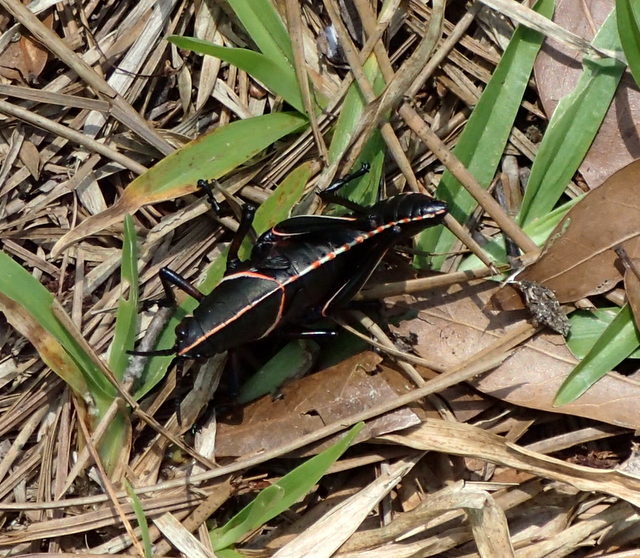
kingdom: Animalia
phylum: Arthropoda
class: Insecta
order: Orthoptera
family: Romaleidae
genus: Romalea
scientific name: Romalea microptera
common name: Eastern lubber grasshopper
